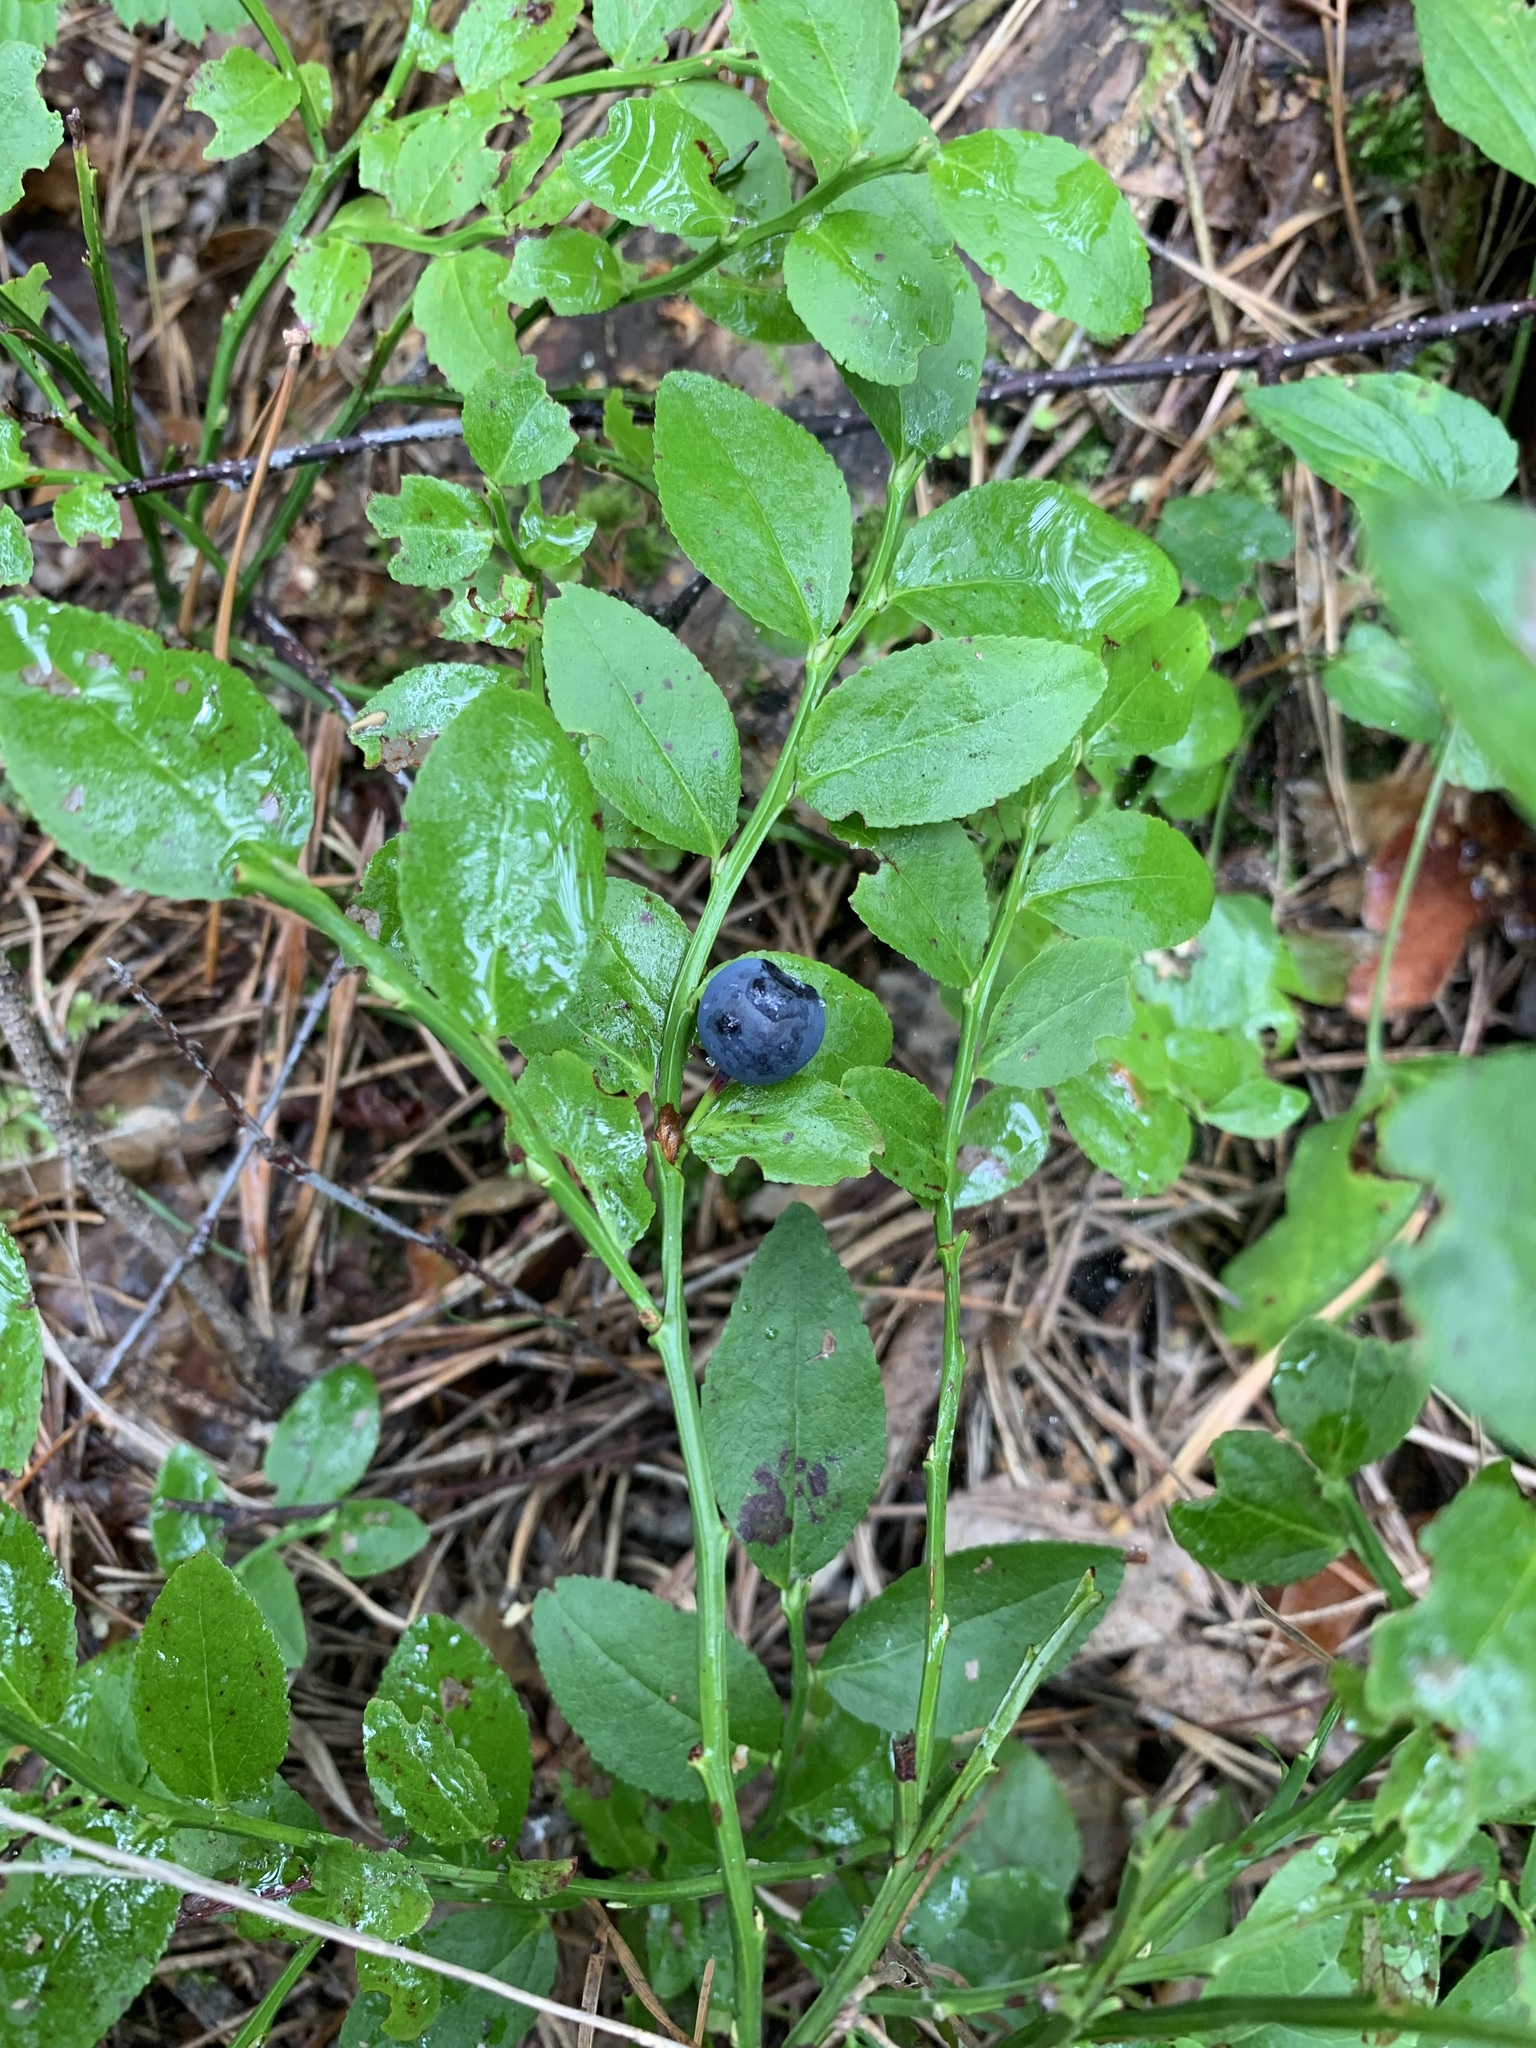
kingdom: Plantae
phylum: Tracheophyta
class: Magnoliopsida
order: Ericales
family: Ericaceae
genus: Vaccinium
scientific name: Vaccinium myrtillus
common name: Bilberry
